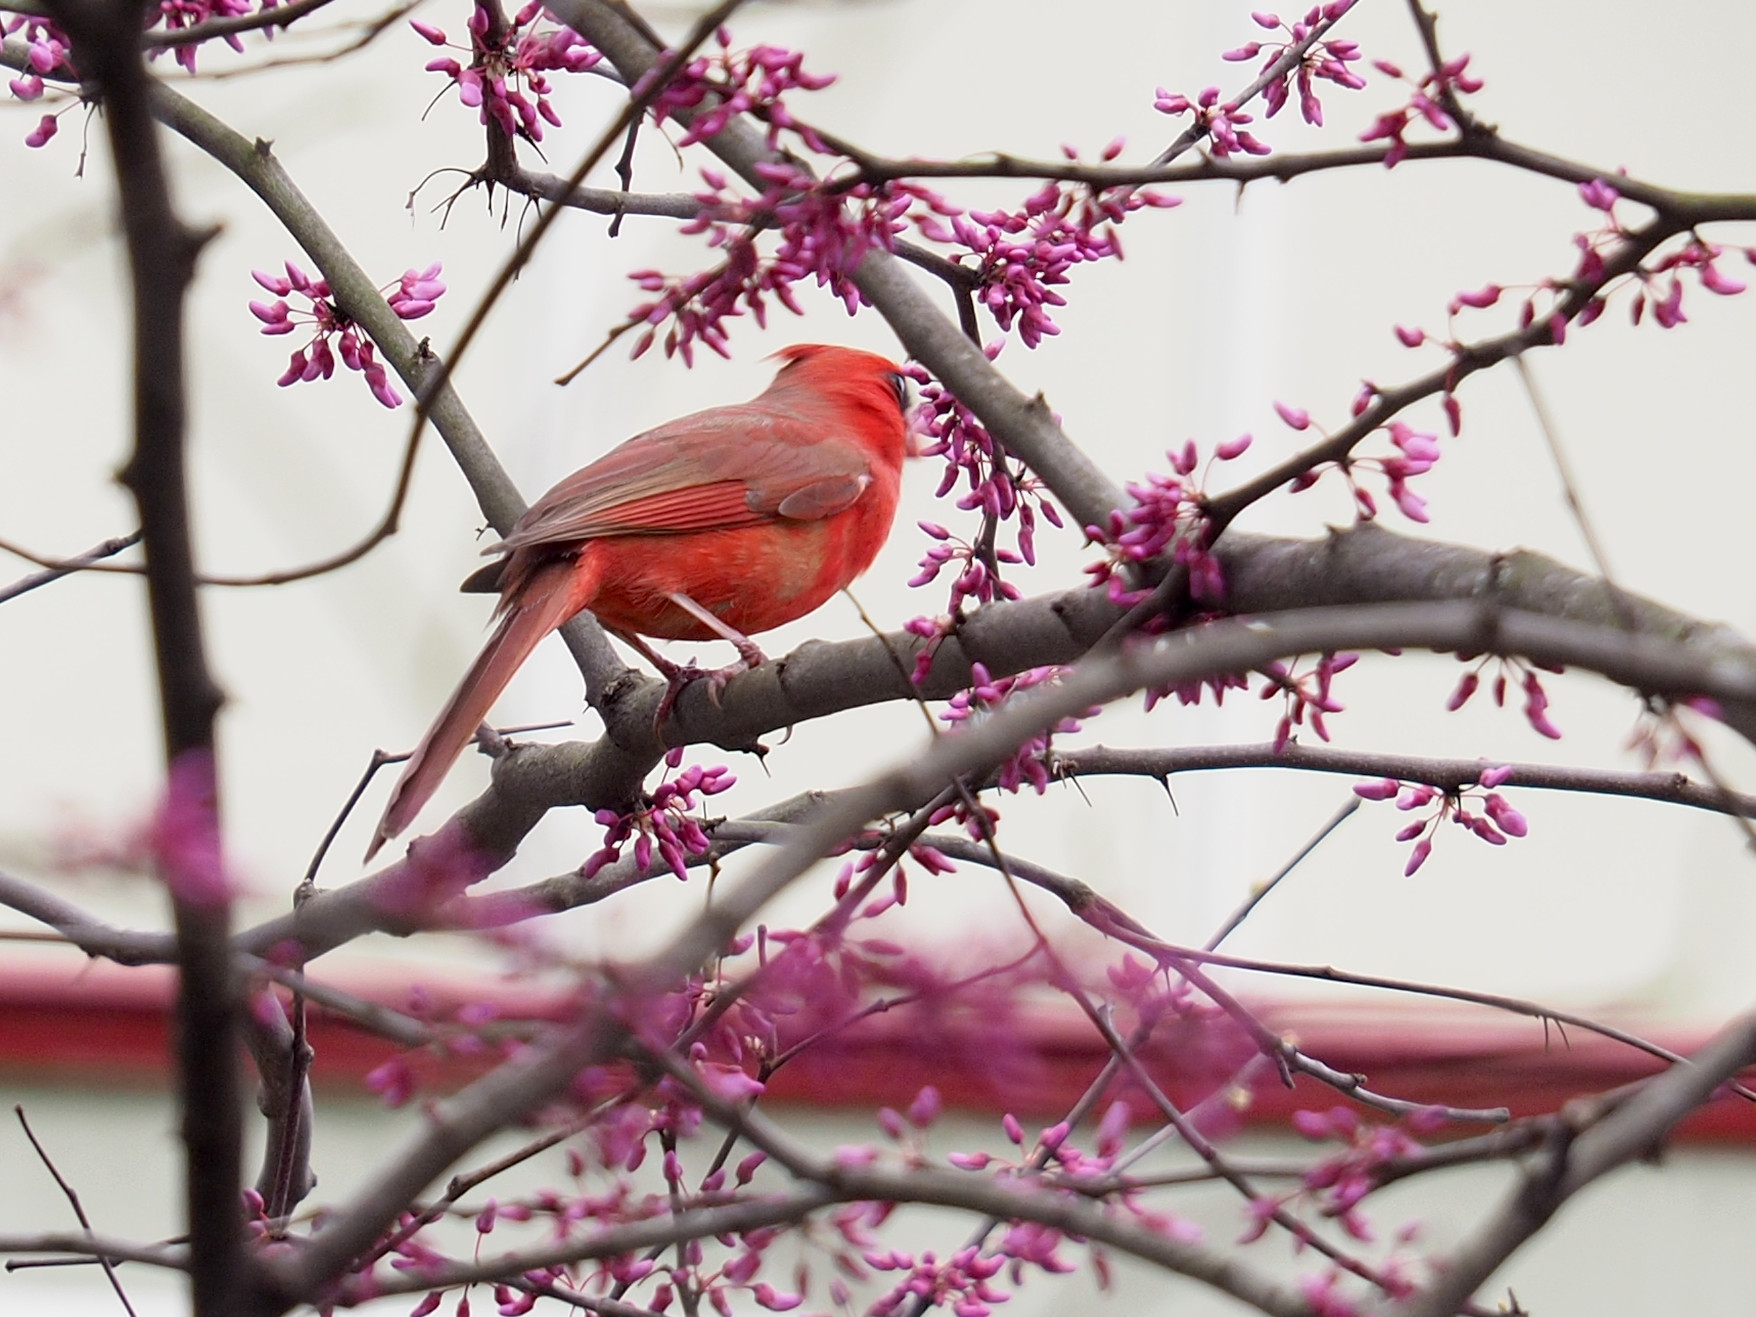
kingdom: Animalia
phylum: Chordata
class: Aves
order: Passeriformes
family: Cardinalidae
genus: Cardinalis
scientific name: Cardinalis cardinalis
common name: Northern cardinal
